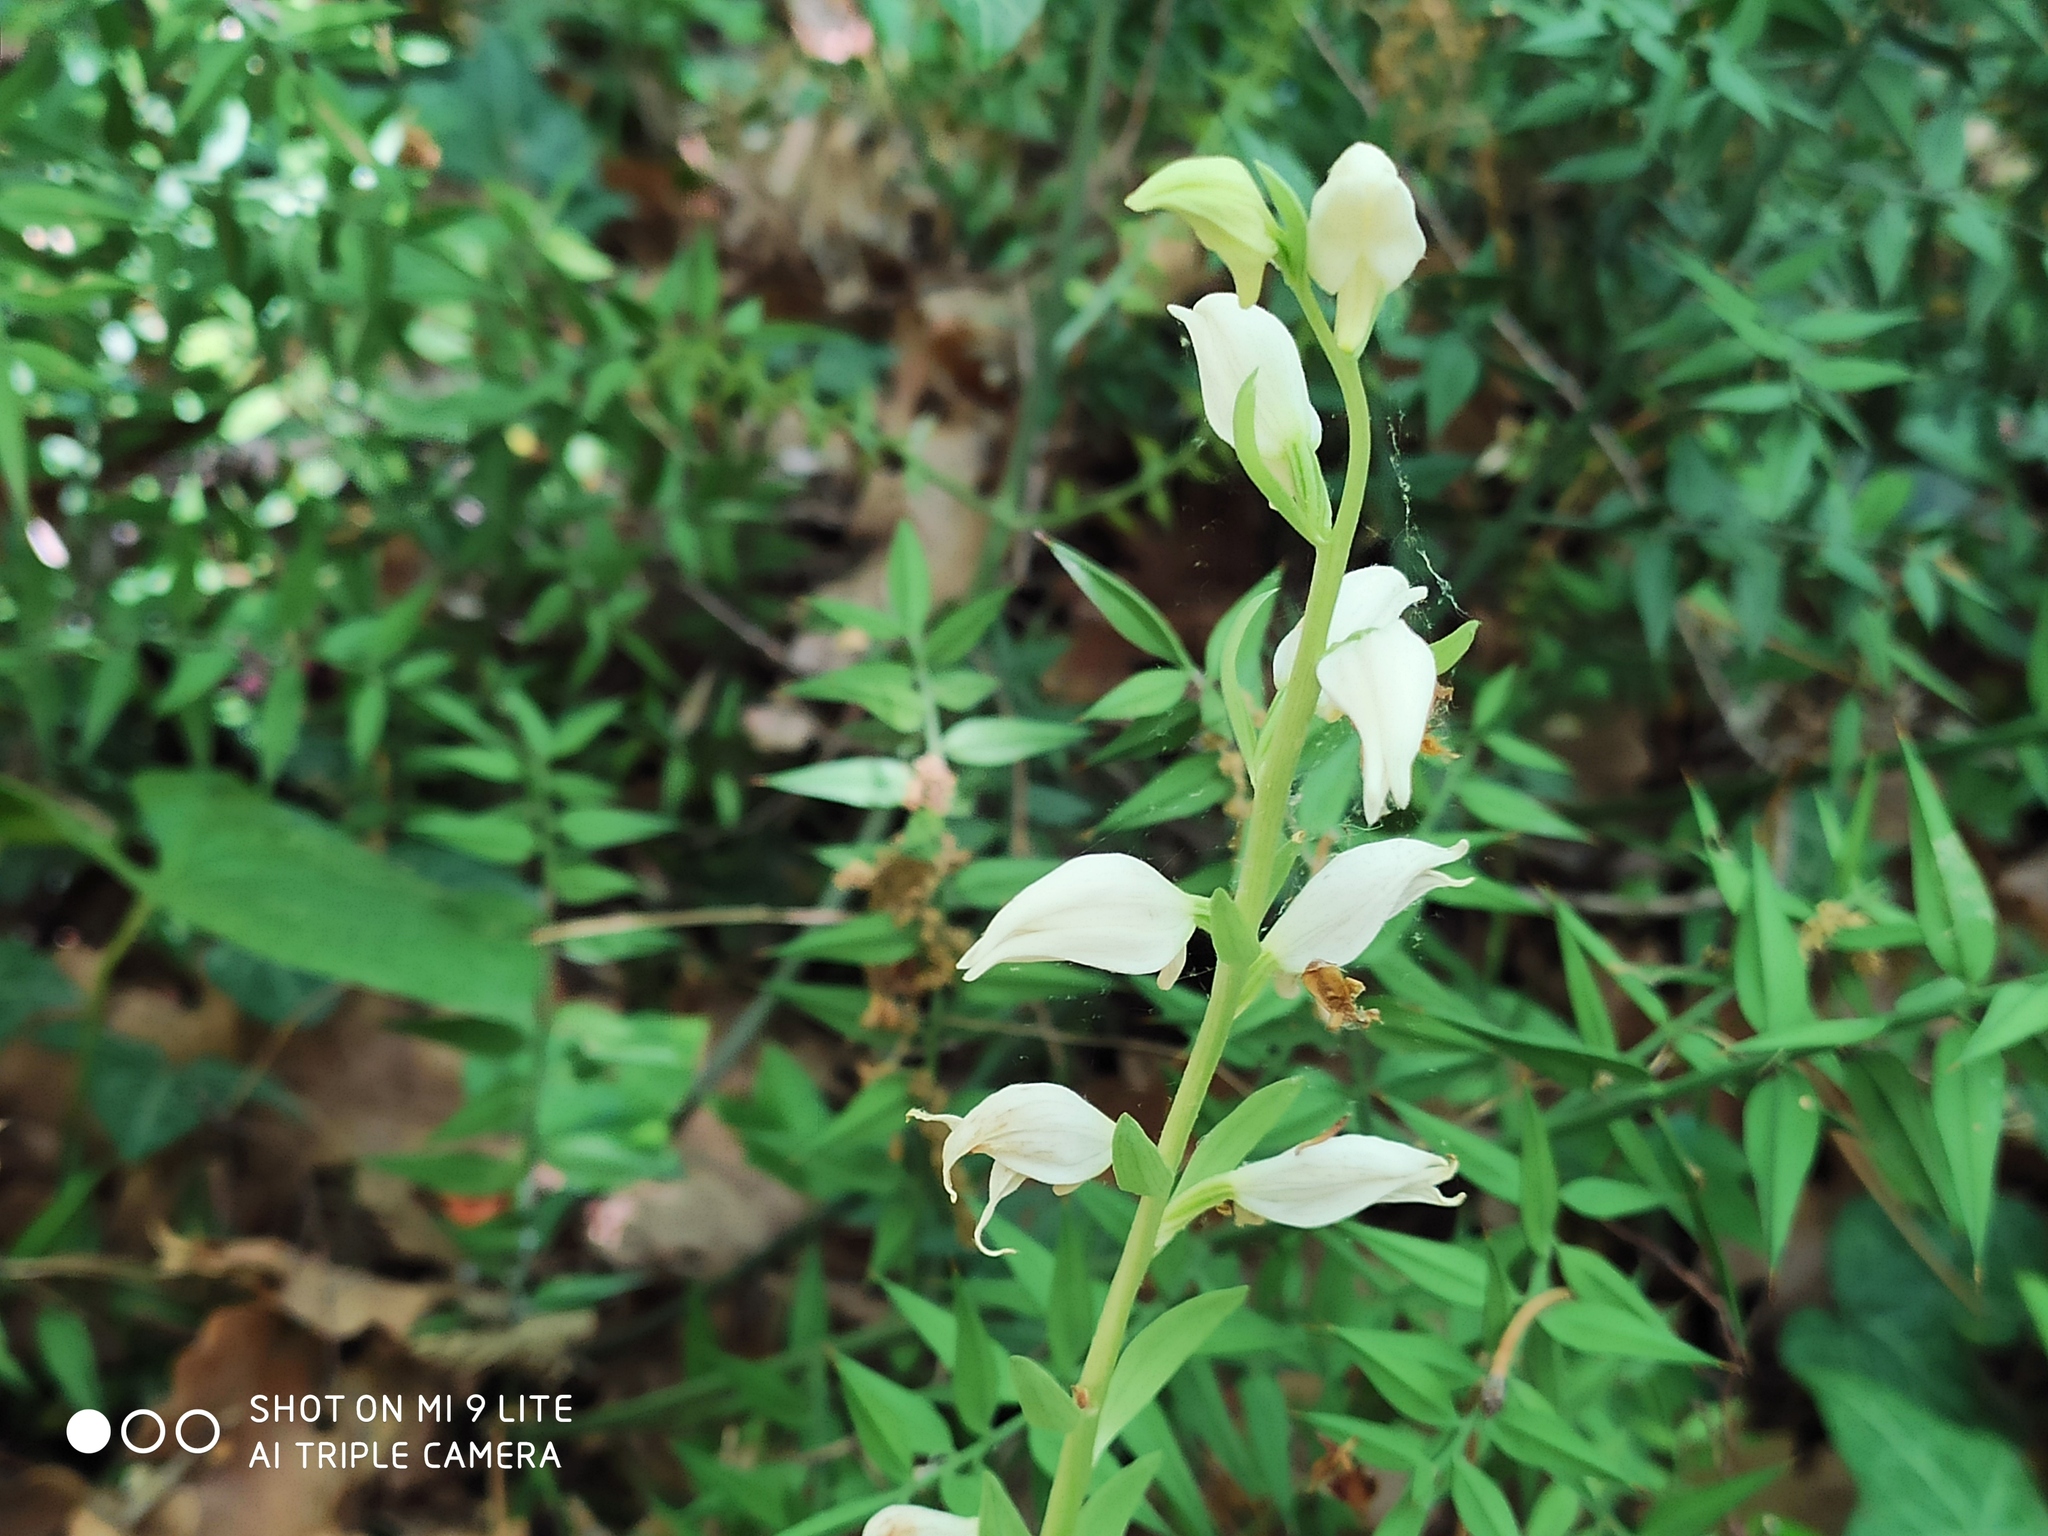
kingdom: Plantae
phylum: Tracheophyta
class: Liliopsida
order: Asparagales
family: Orchidaceae
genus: Cephalanthera
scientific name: Cephalanthera epipactoides
